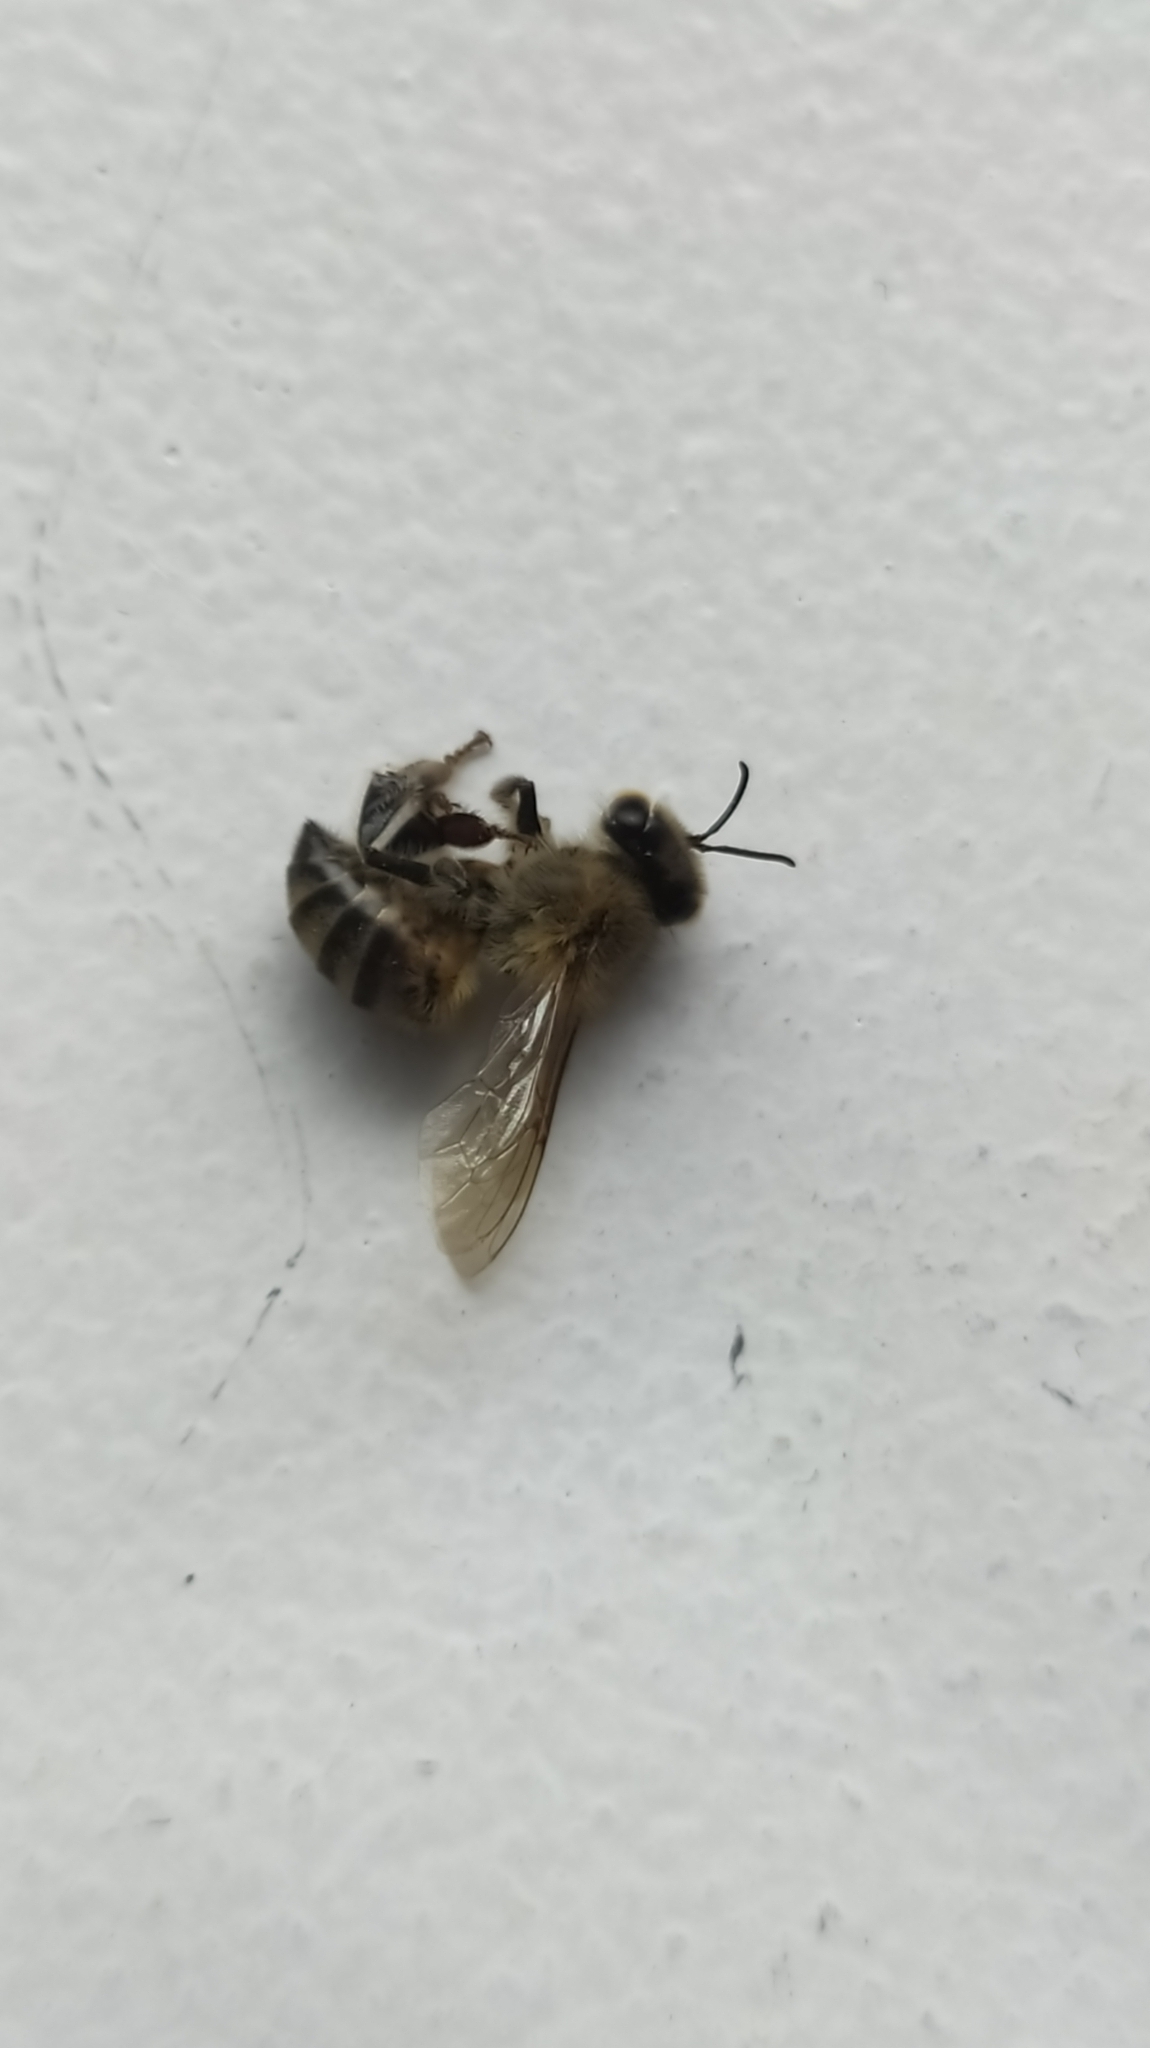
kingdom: Animalia
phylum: Arthropoda
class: Insecta
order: Hymenoptera
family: Apidae
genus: Apis
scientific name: Apis mellifera
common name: Honey bee
